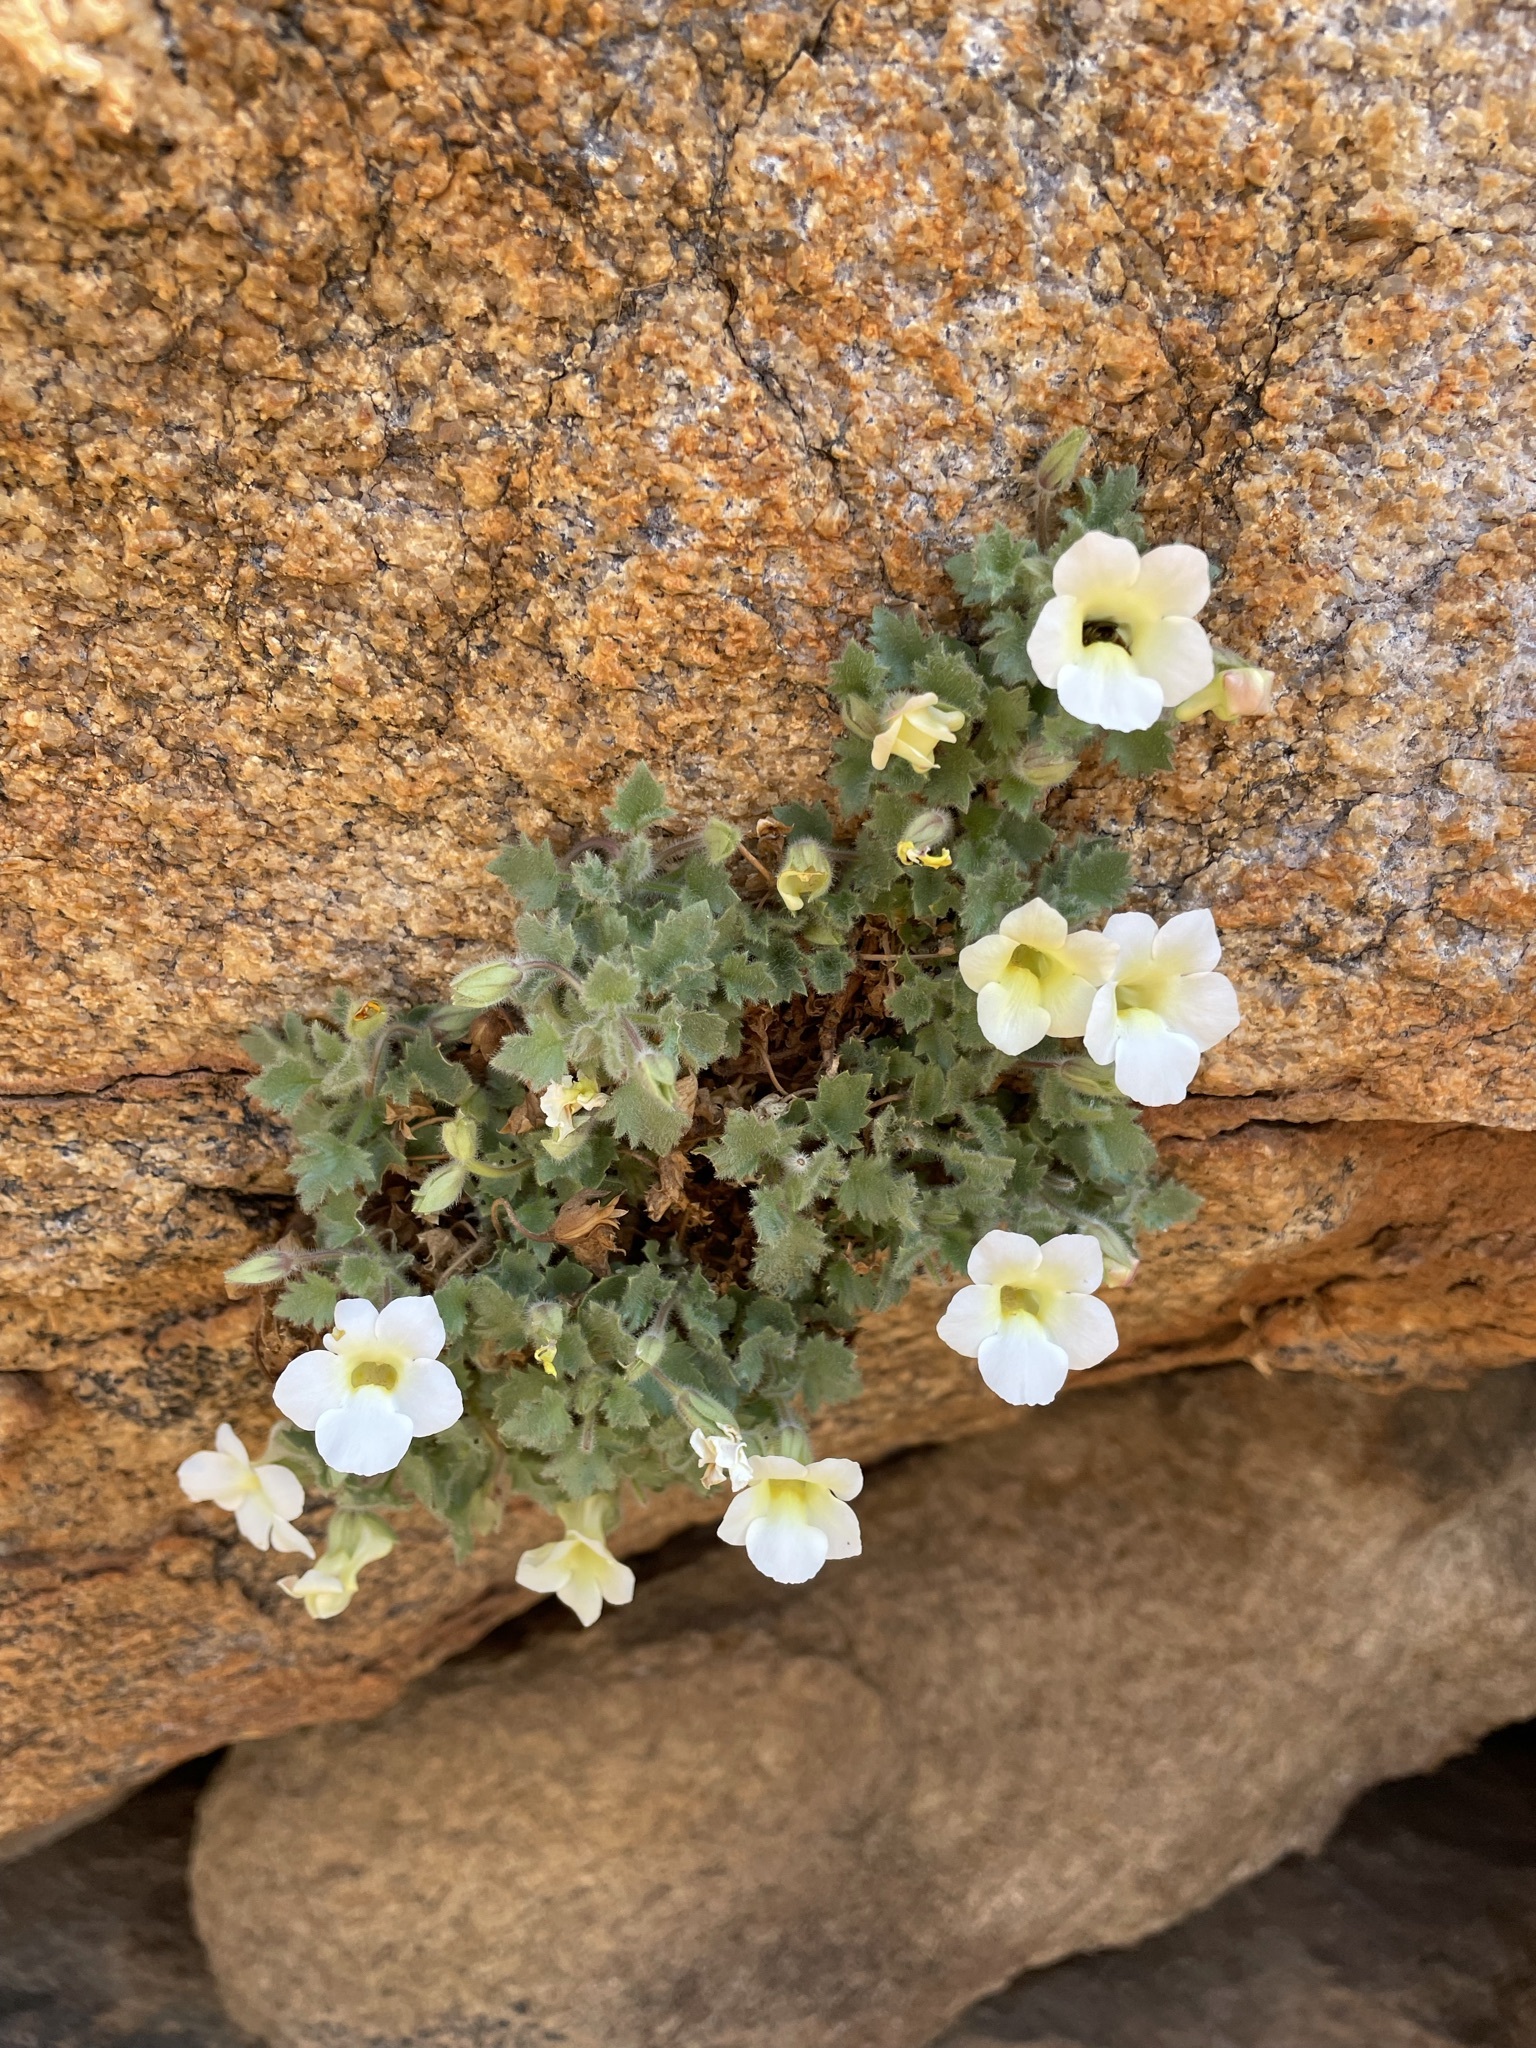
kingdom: Plantae
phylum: Tracheophyta
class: Magnoliopsida
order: Lamiales
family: Scrophulariaceae
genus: Colpias
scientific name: Colpias mollis
